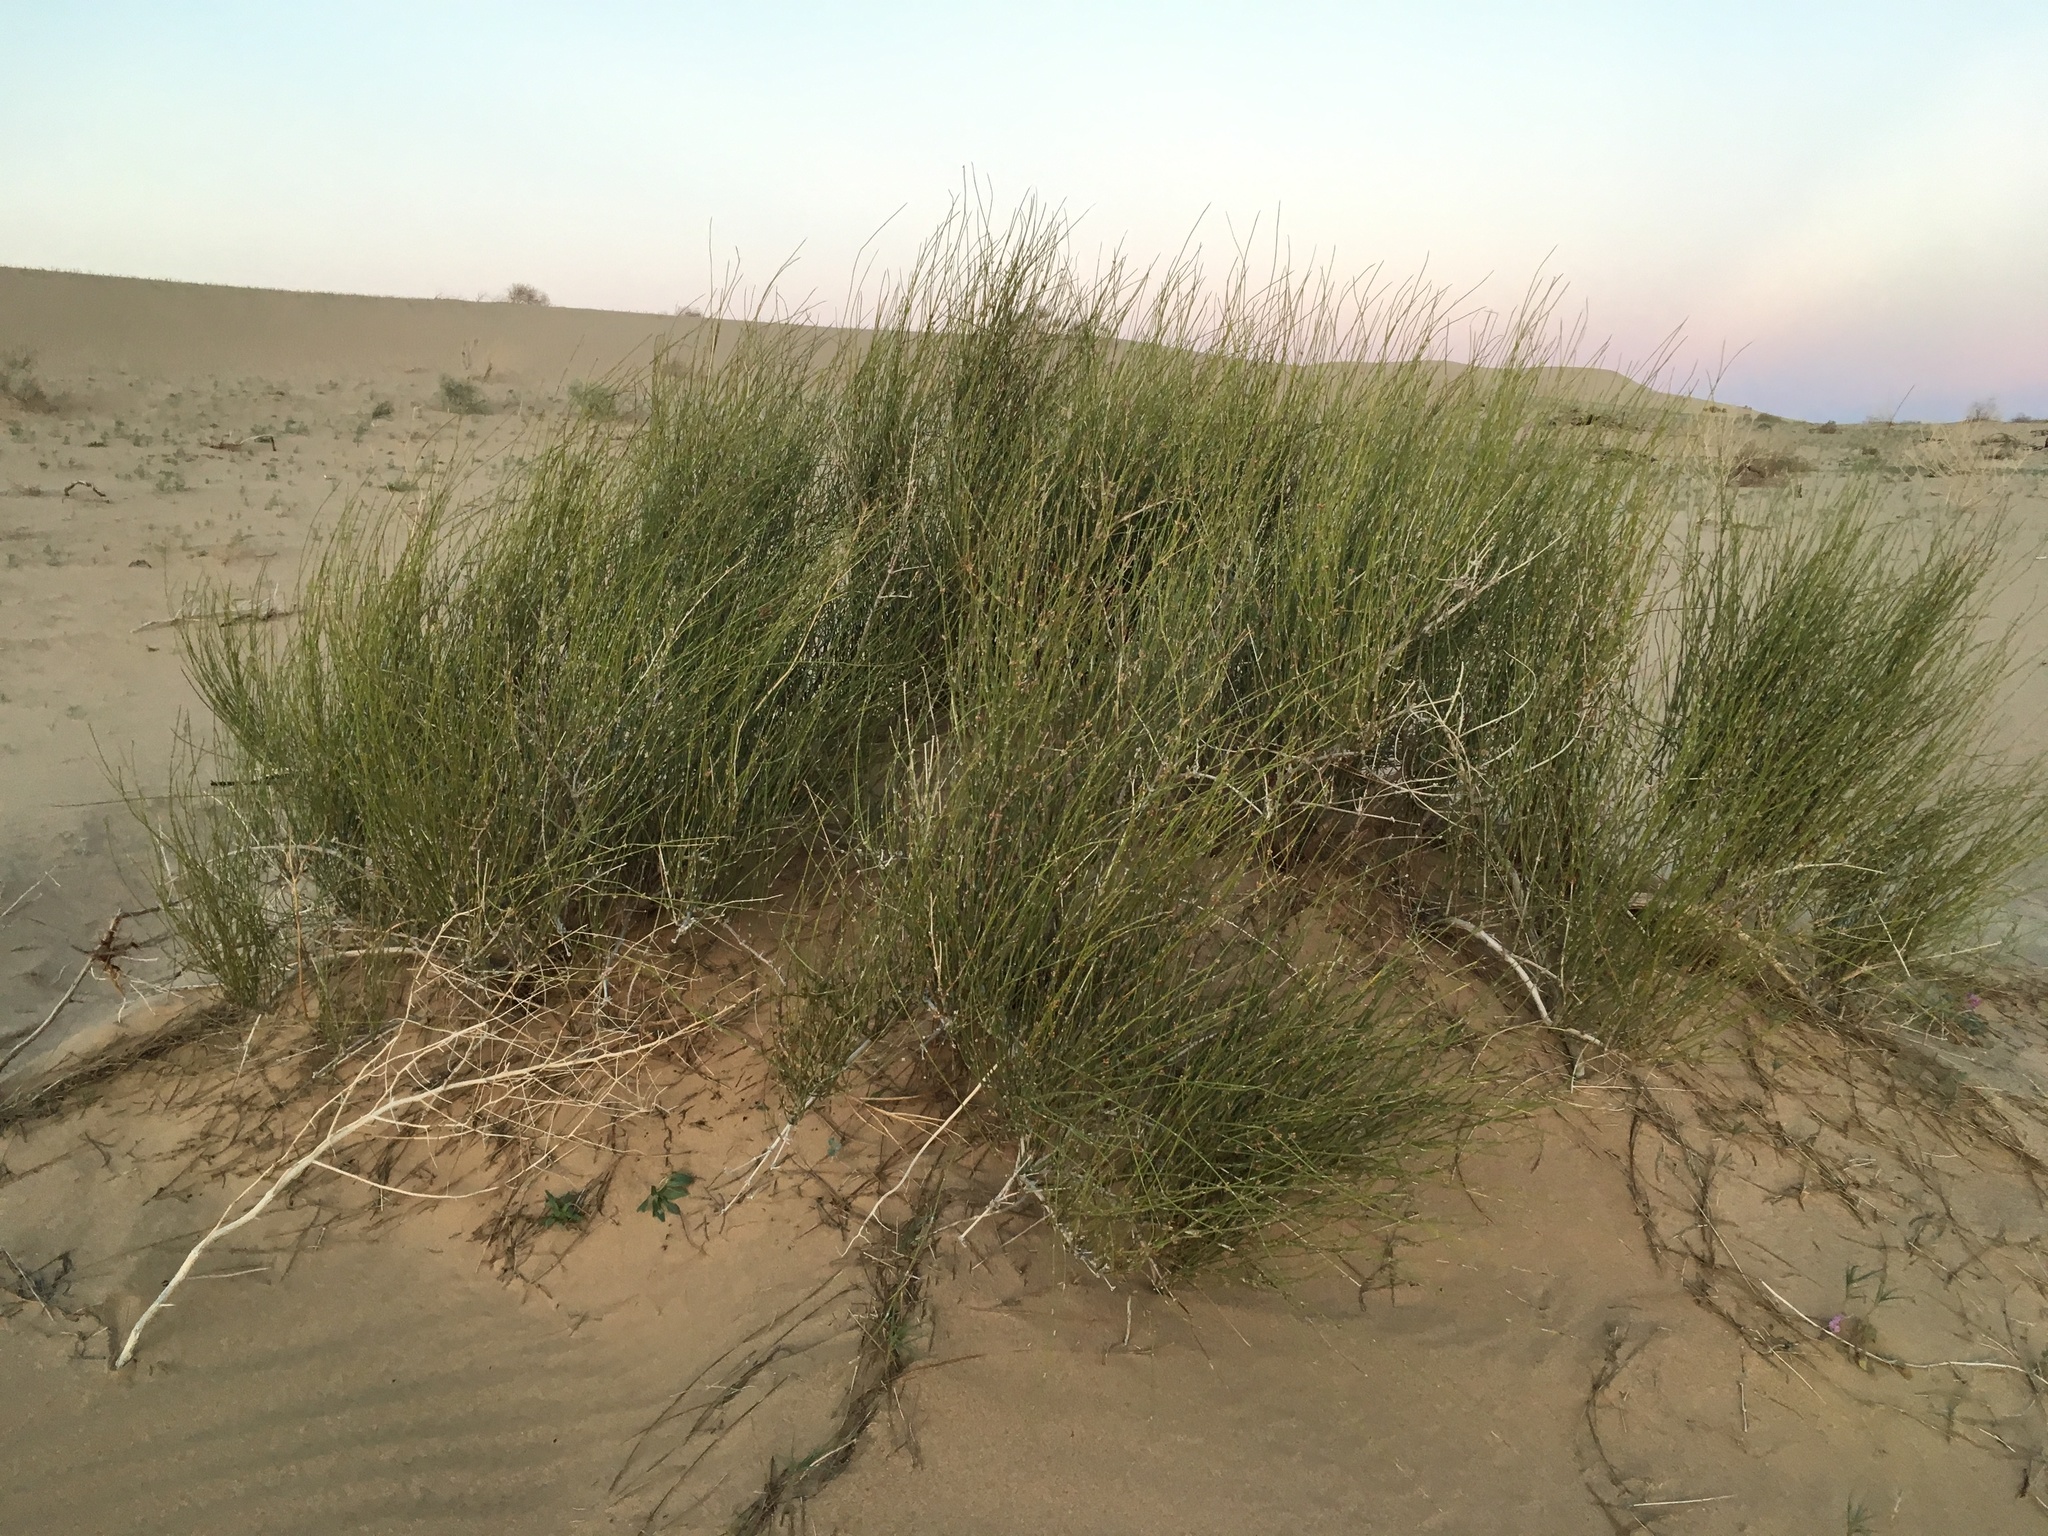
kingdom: Plantae
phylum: Tracheophyta
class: Gnetopsida
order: Ephedrales
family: Ephedraceae
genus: Ephedra
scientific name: Ephedra trifurca
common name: Mexican-tea
